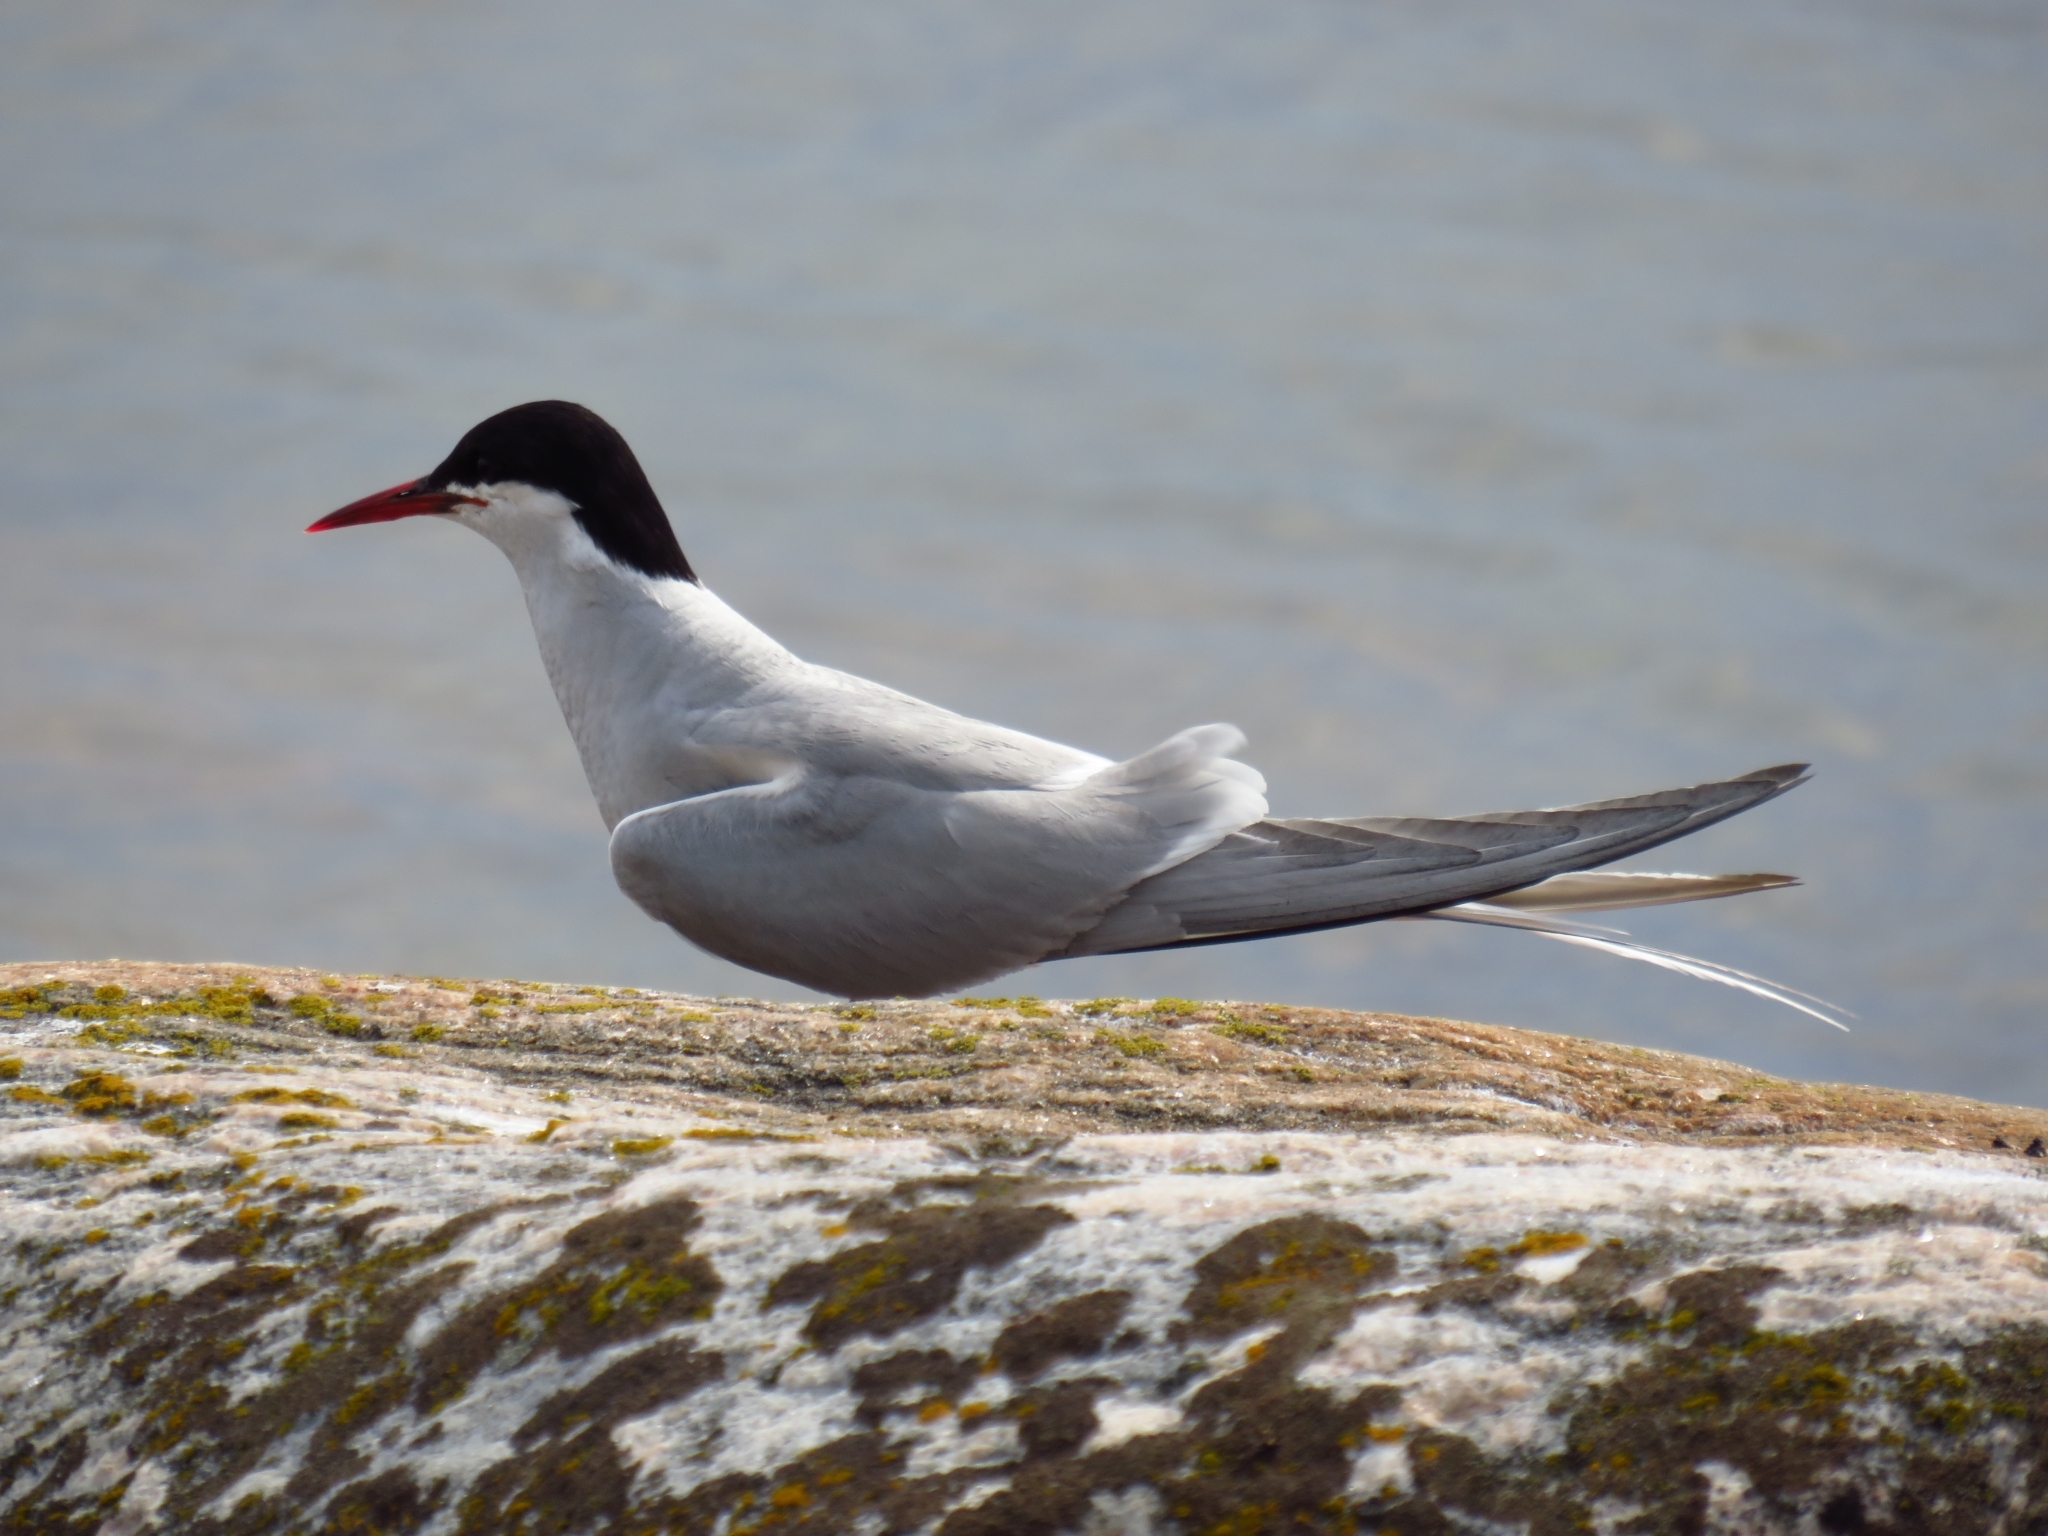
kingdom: Animalia
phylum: Chordata
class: Aves
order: Charadriiformes
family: Laridae
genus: Sterna
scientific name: Sterna paradisaea
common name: Arctic tern
